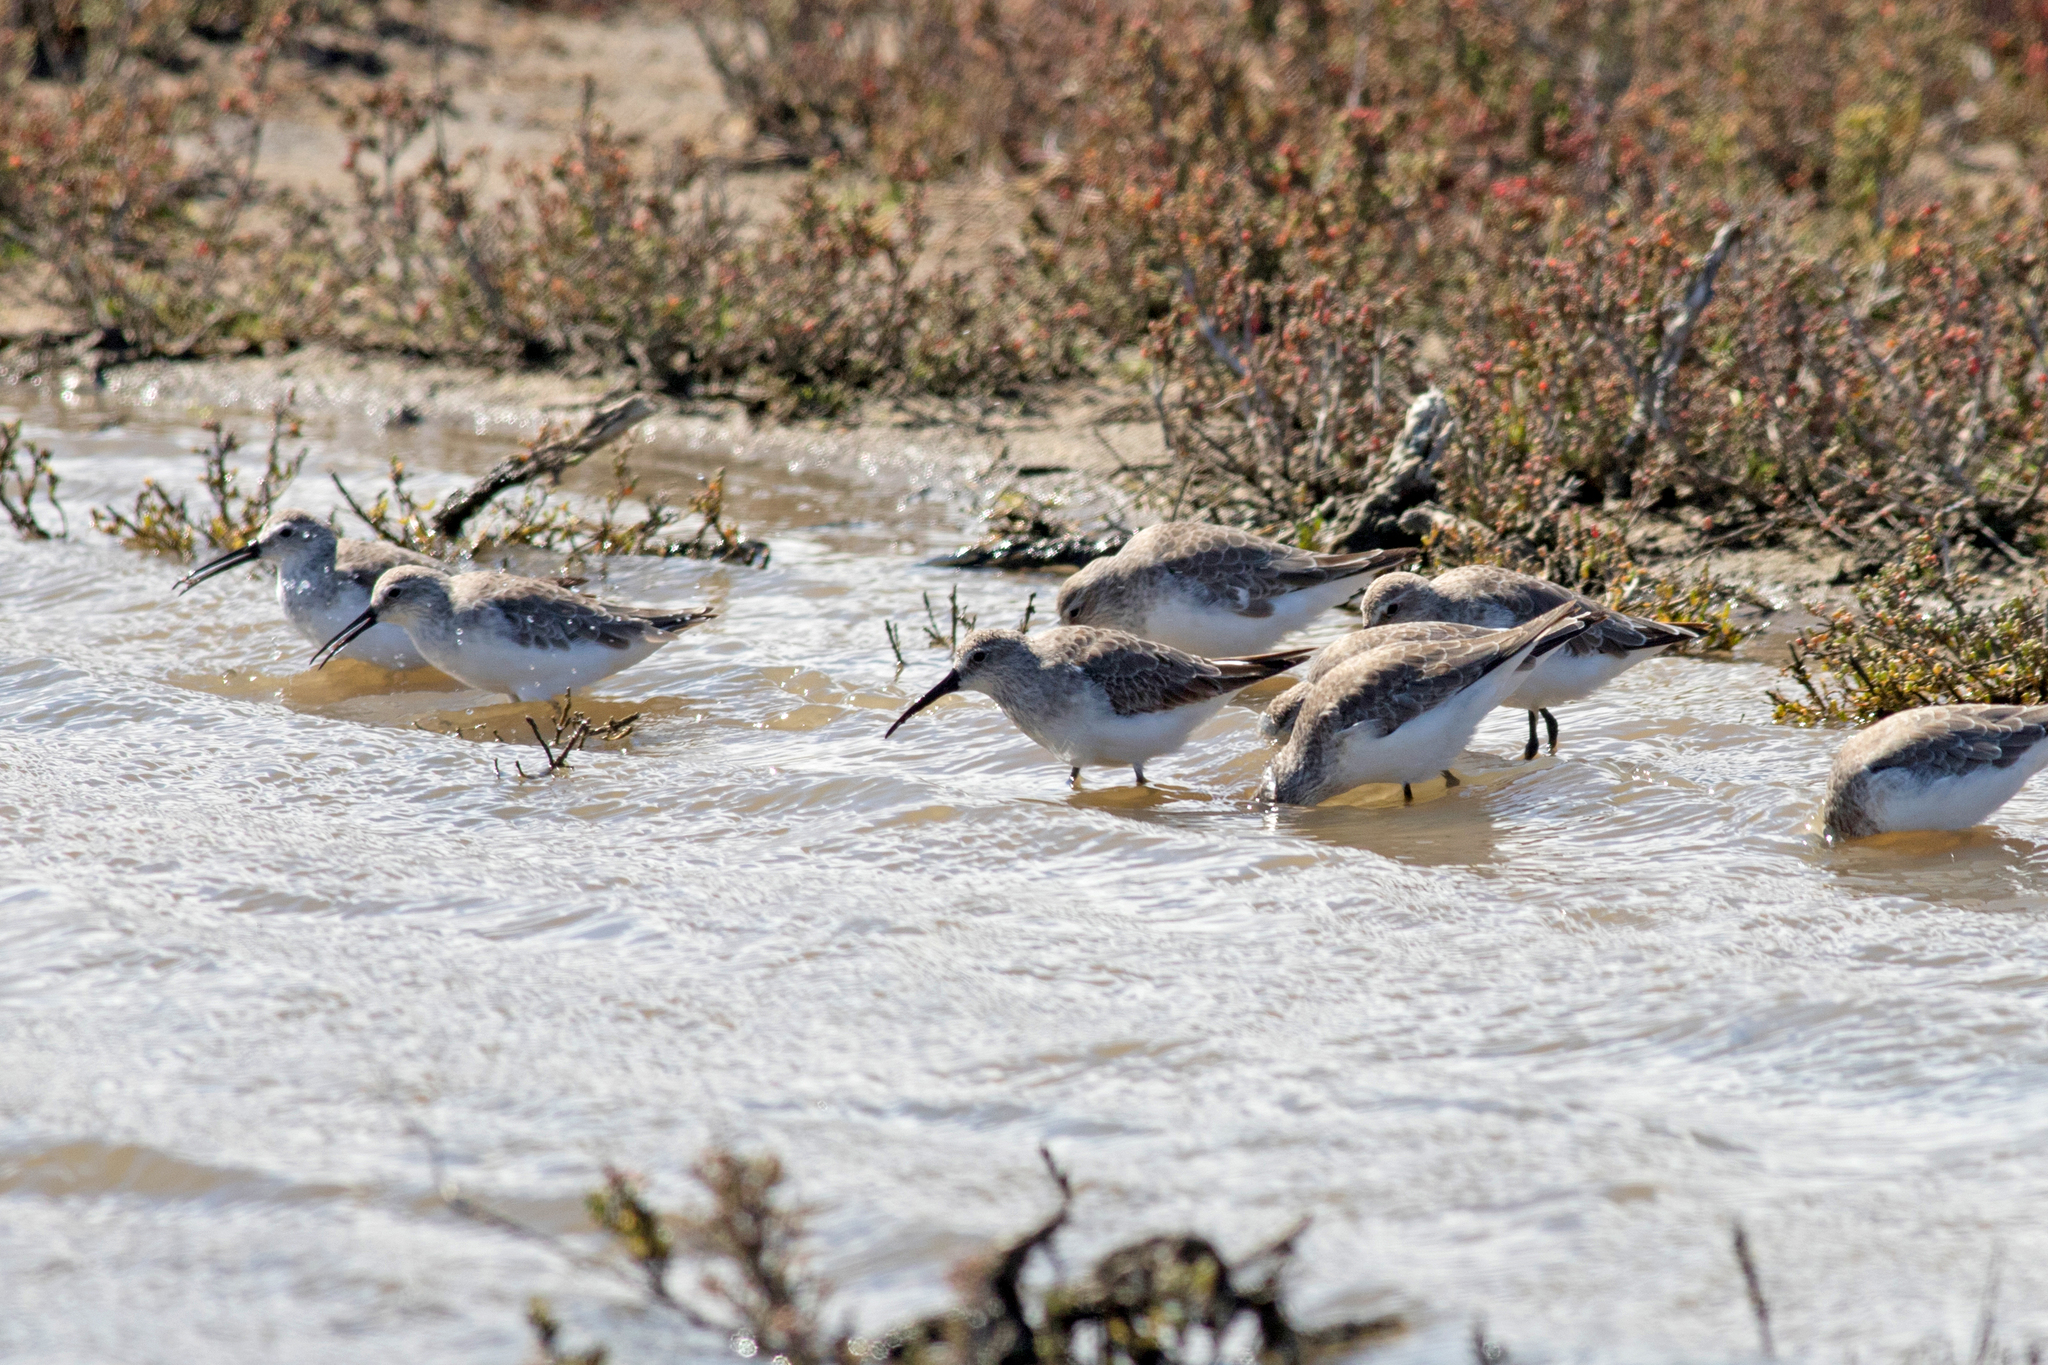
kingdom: Animalia
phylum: Chordata
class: Aves
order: Charadriiformes
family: Scolopacidae
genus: Calidris
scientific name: Calidris ferruginea
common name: Curlew sandpiper
